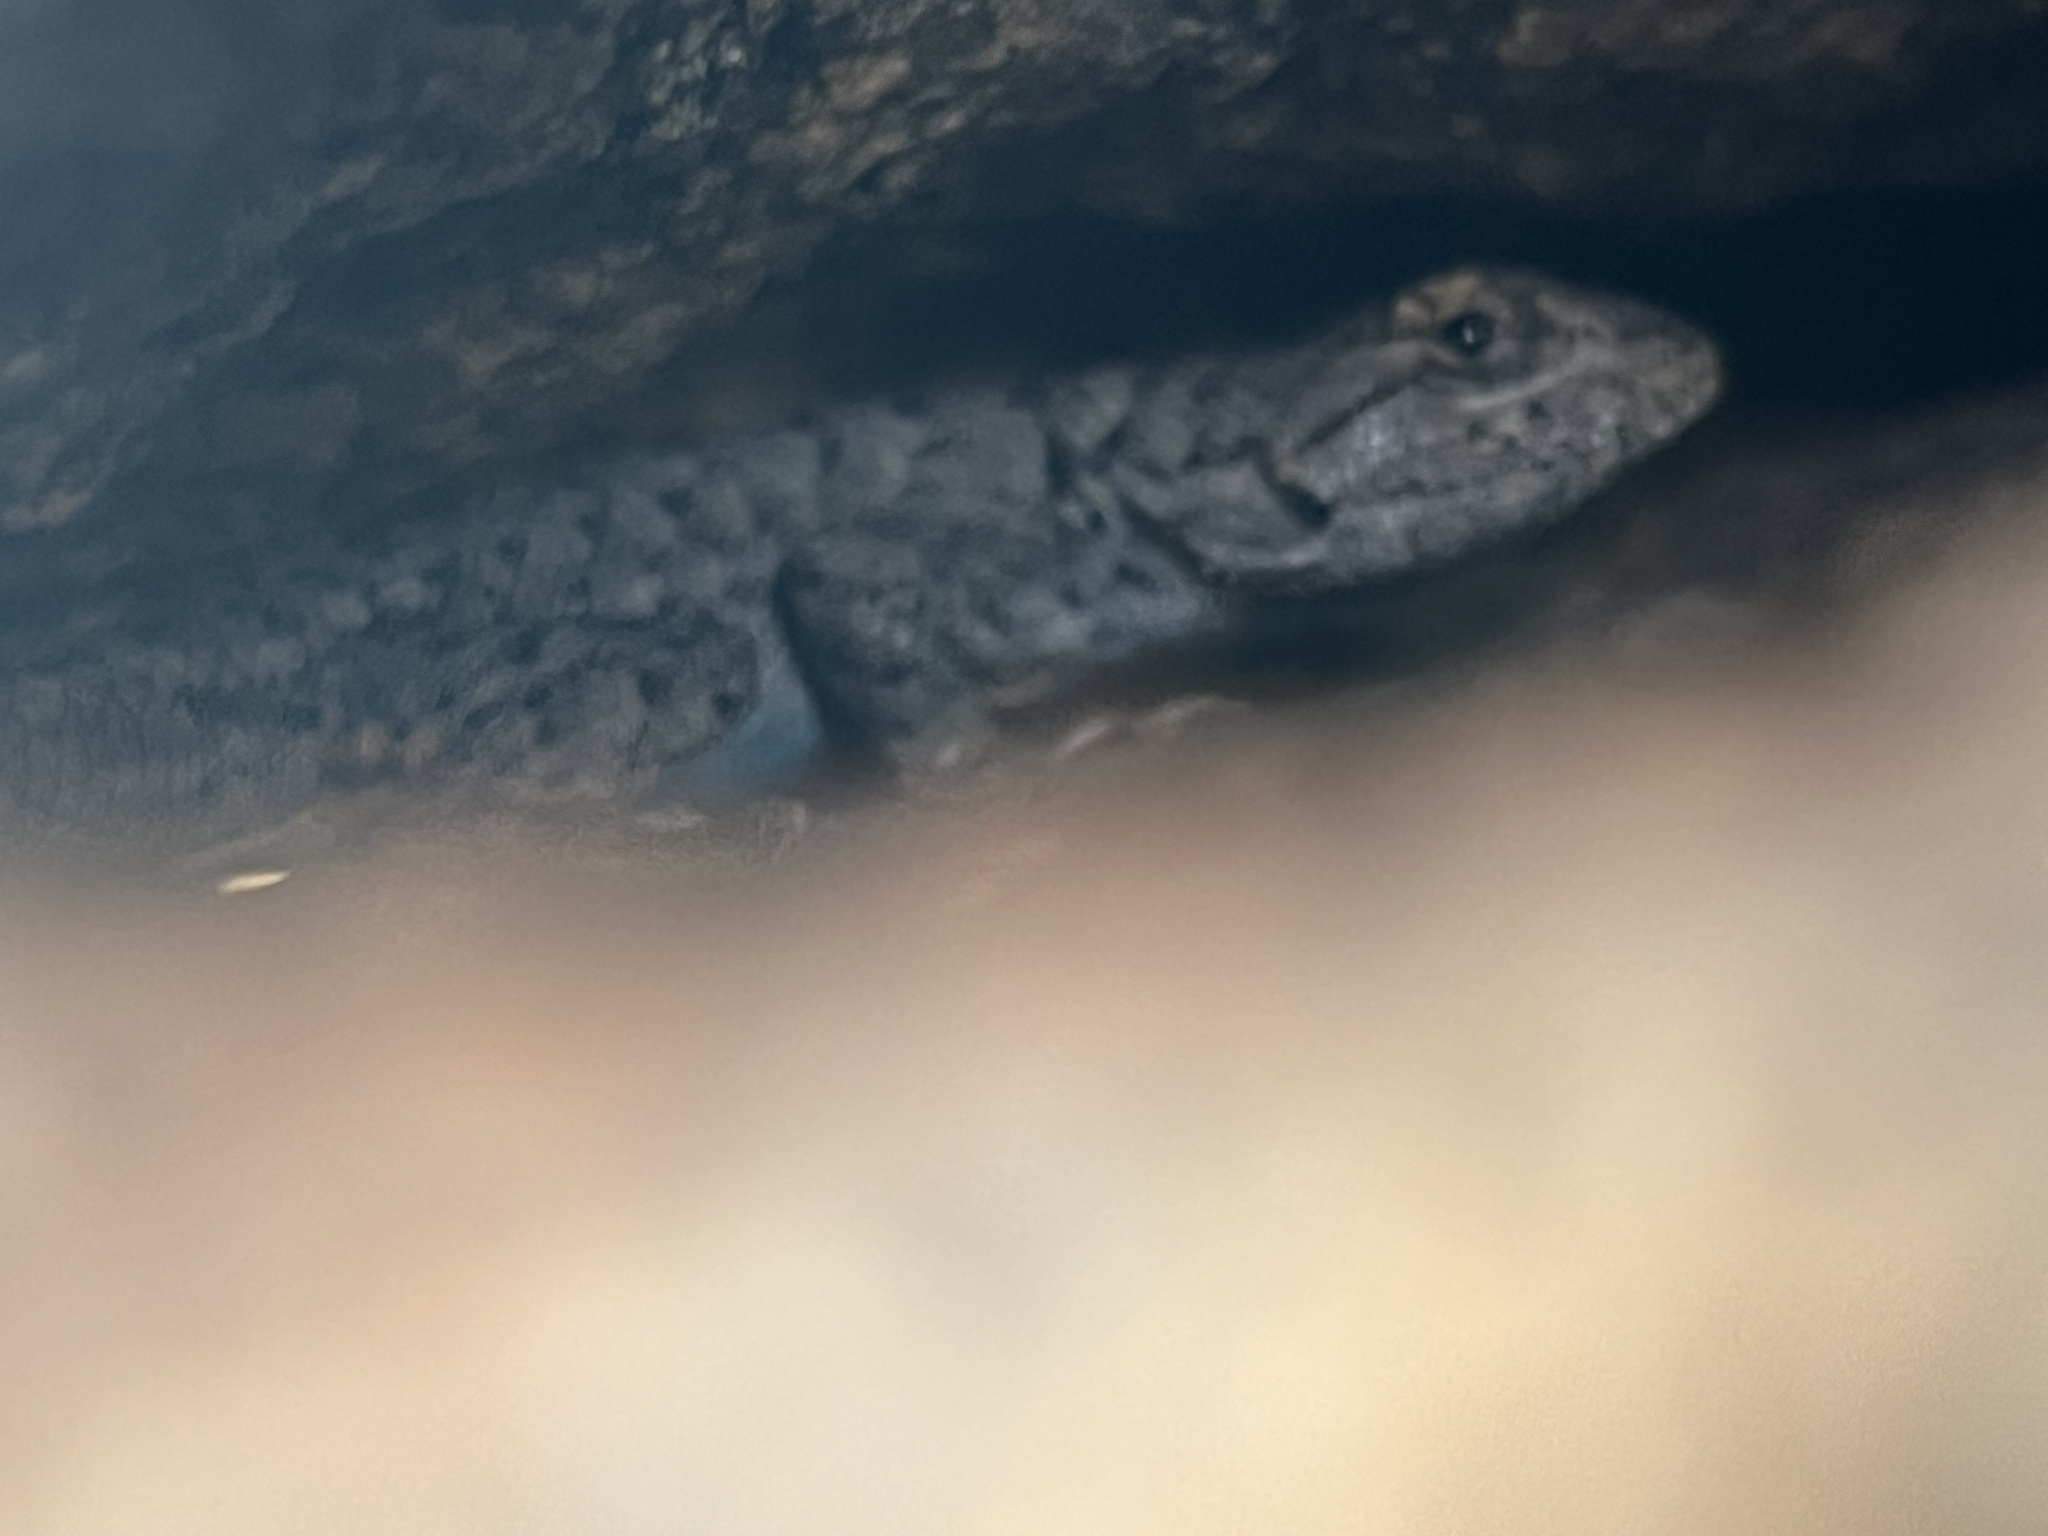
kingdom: Animalia
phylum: Chordata
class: Squamata
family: Phrynosomatidae
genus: Sceloporus
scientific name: Sceloporus occidentalis
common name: Western fence lizard
